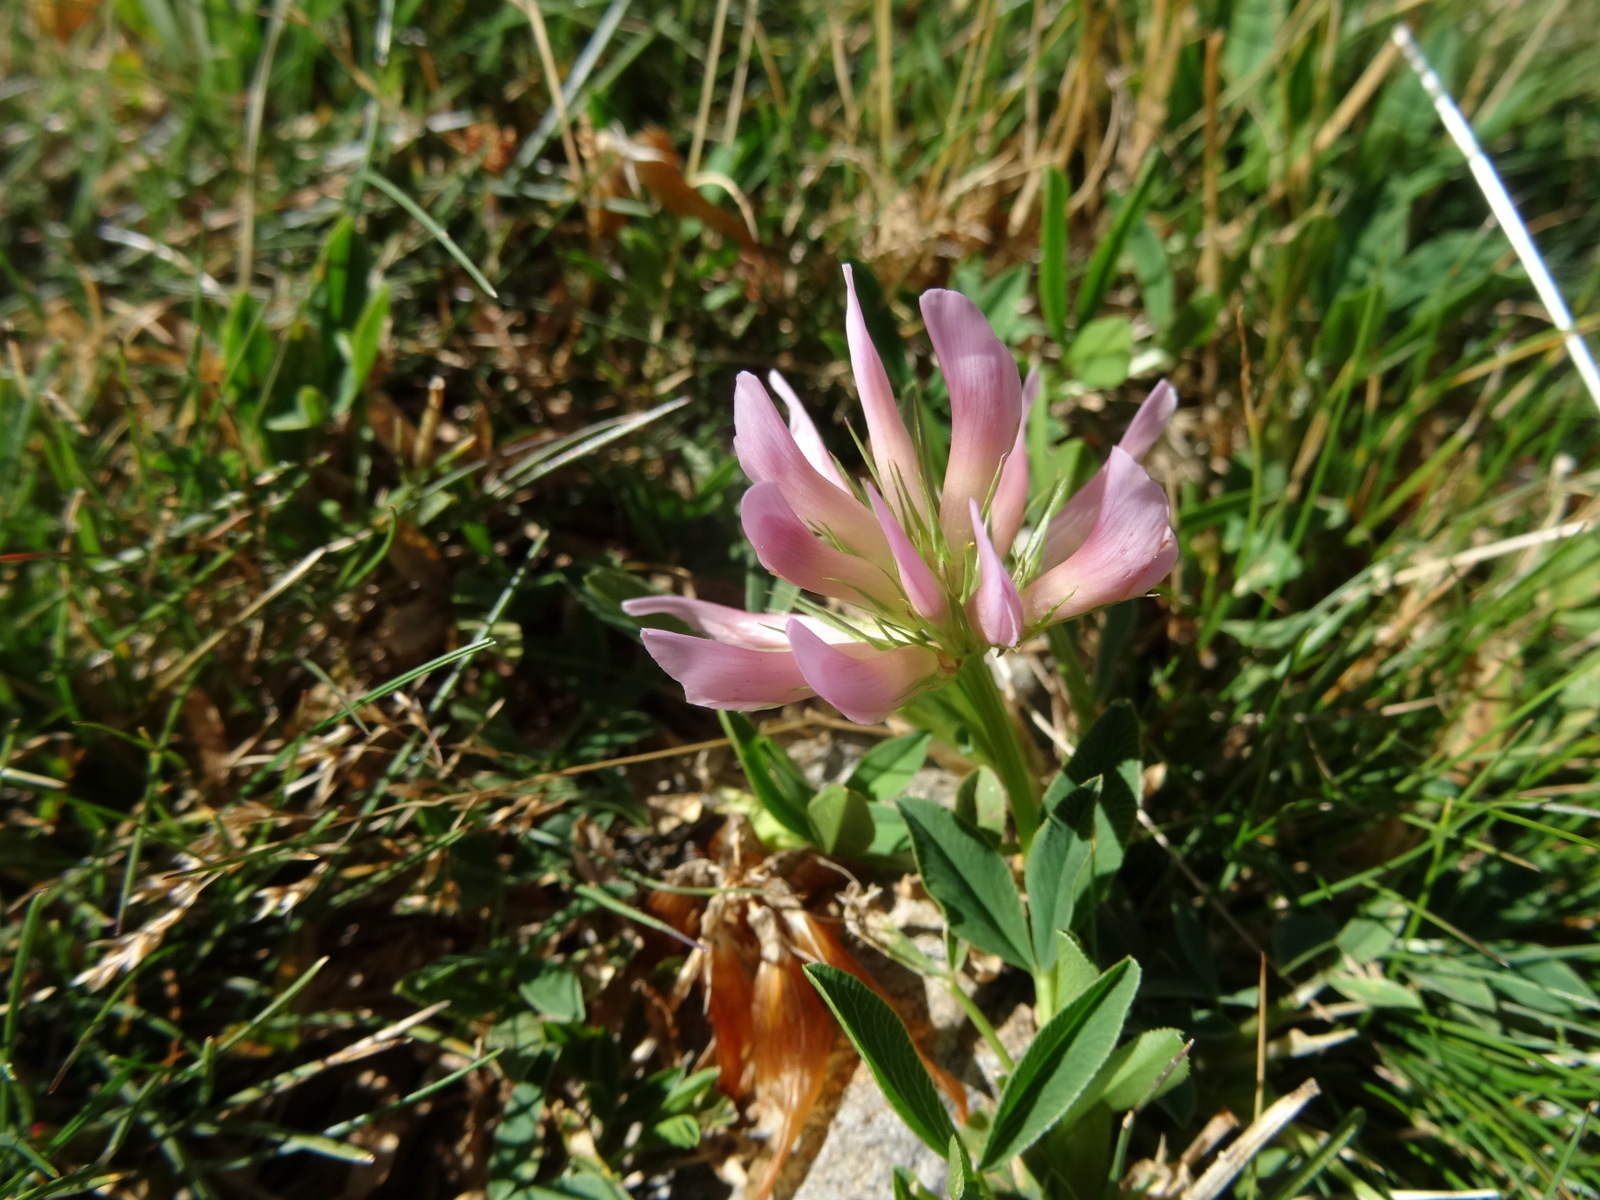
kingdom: Plantae
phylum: Tracheophyta
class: Magnoliopsida
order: Fabales
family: Fabaceae
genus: Trifolium
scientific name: Trifolium alpinum
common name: Alpine clover
